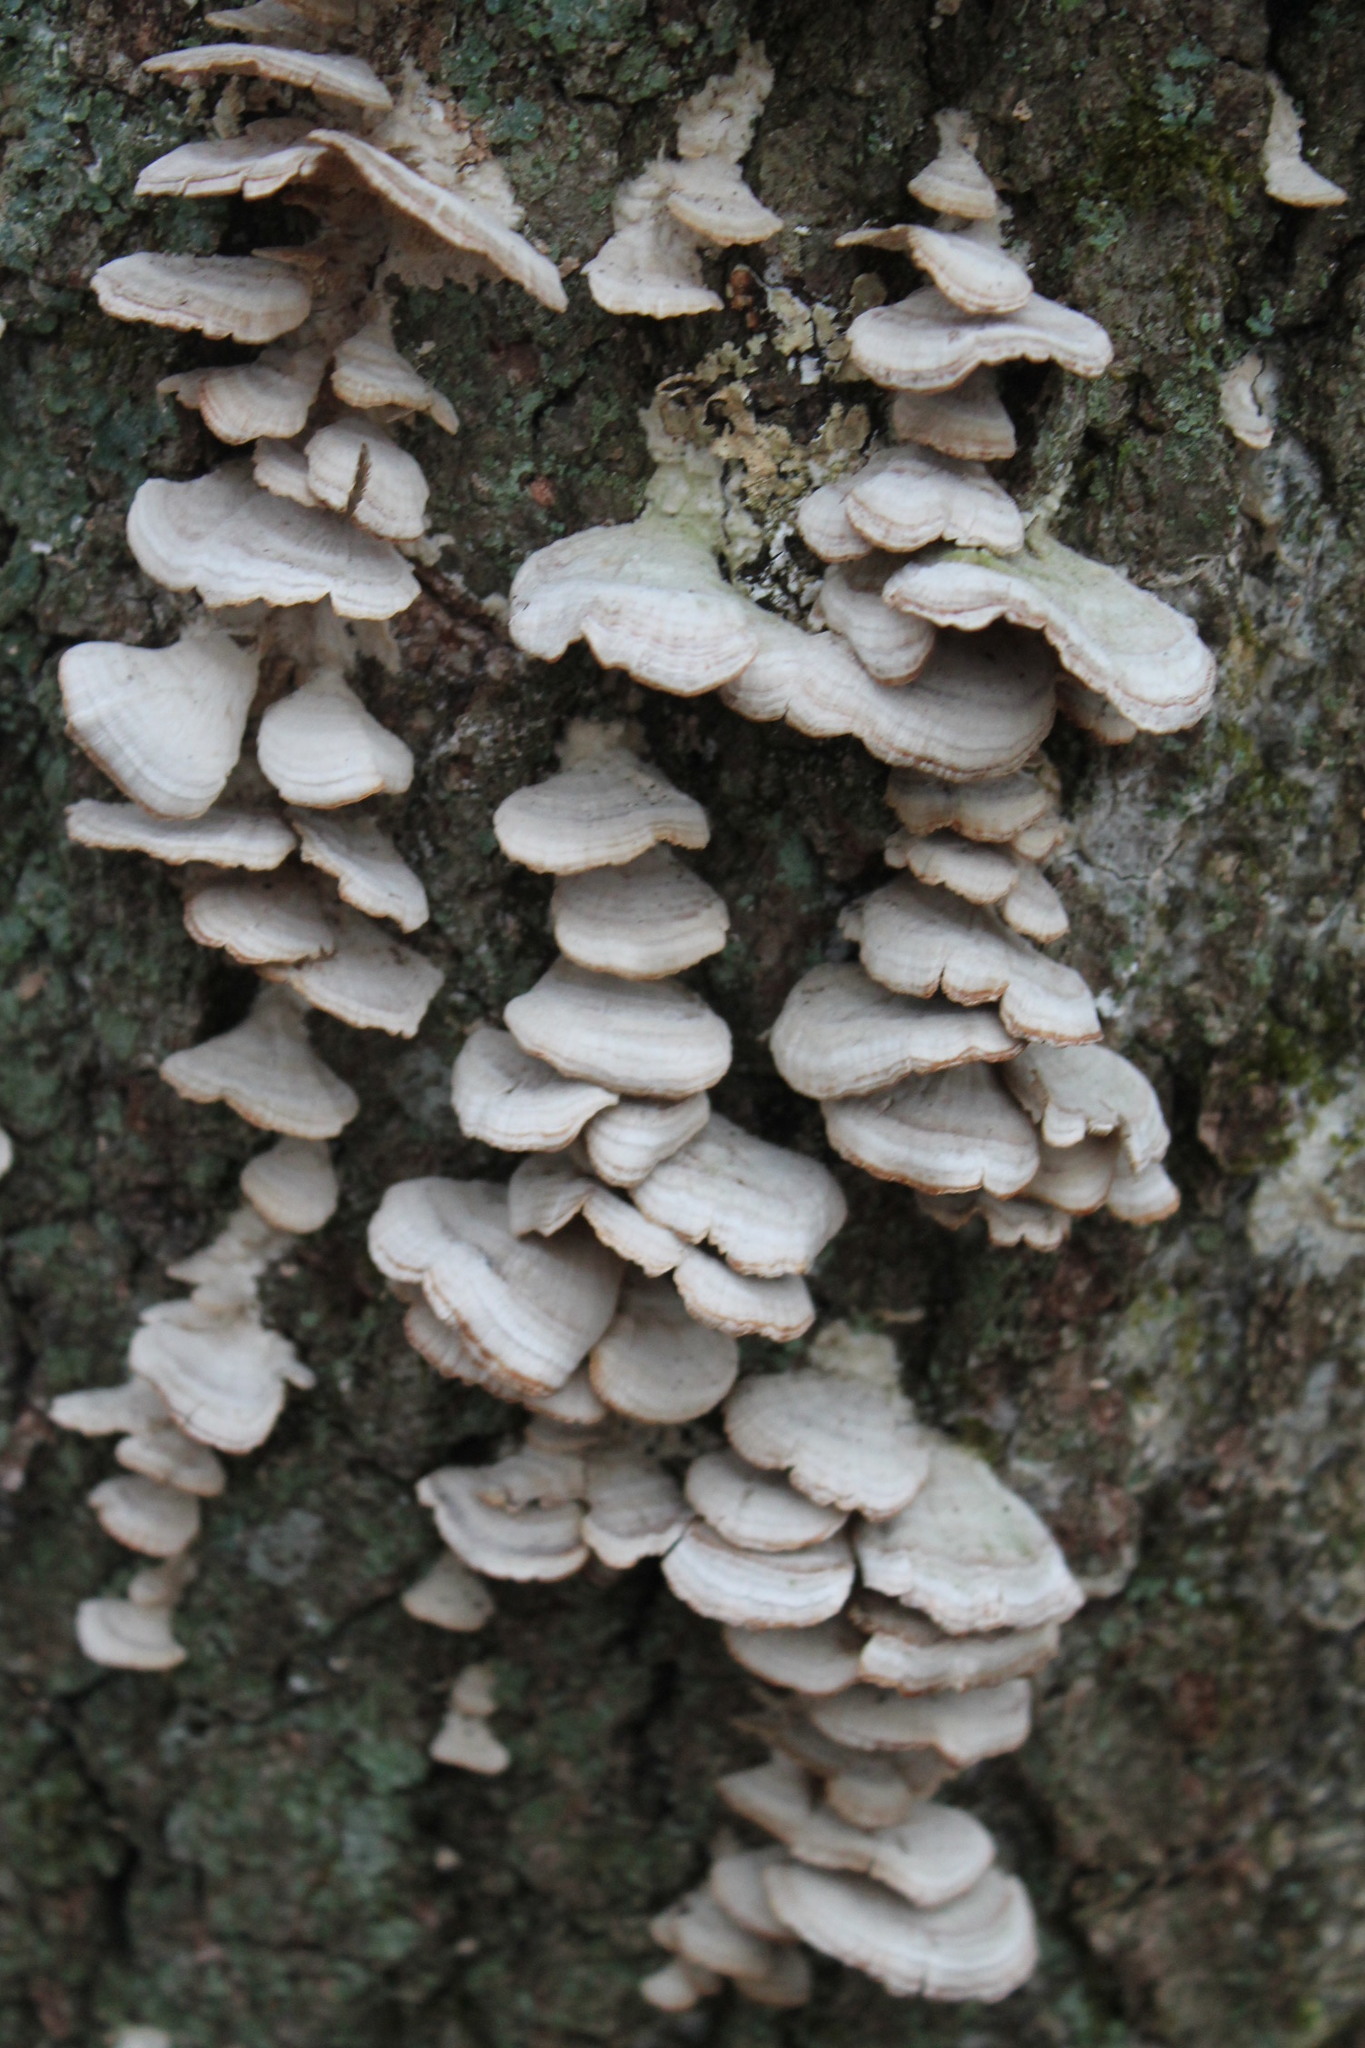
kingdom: Fungi
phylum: Basidiomycota
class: Agaricomycetes
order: Hymenochaetales
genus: Trichaptum
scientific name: Trichaptum biforme
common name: Violet-toothed polypore
